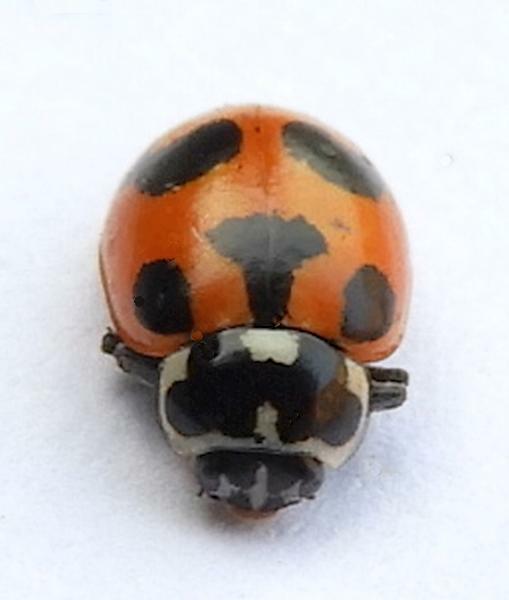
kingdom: Animalia
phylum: Arthropoda
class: Insecta
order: Coleoptera
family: Coccinellidae
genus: Hippodamia
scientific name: Hippodamia parenthesis
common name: Parenthesis lady beetle
